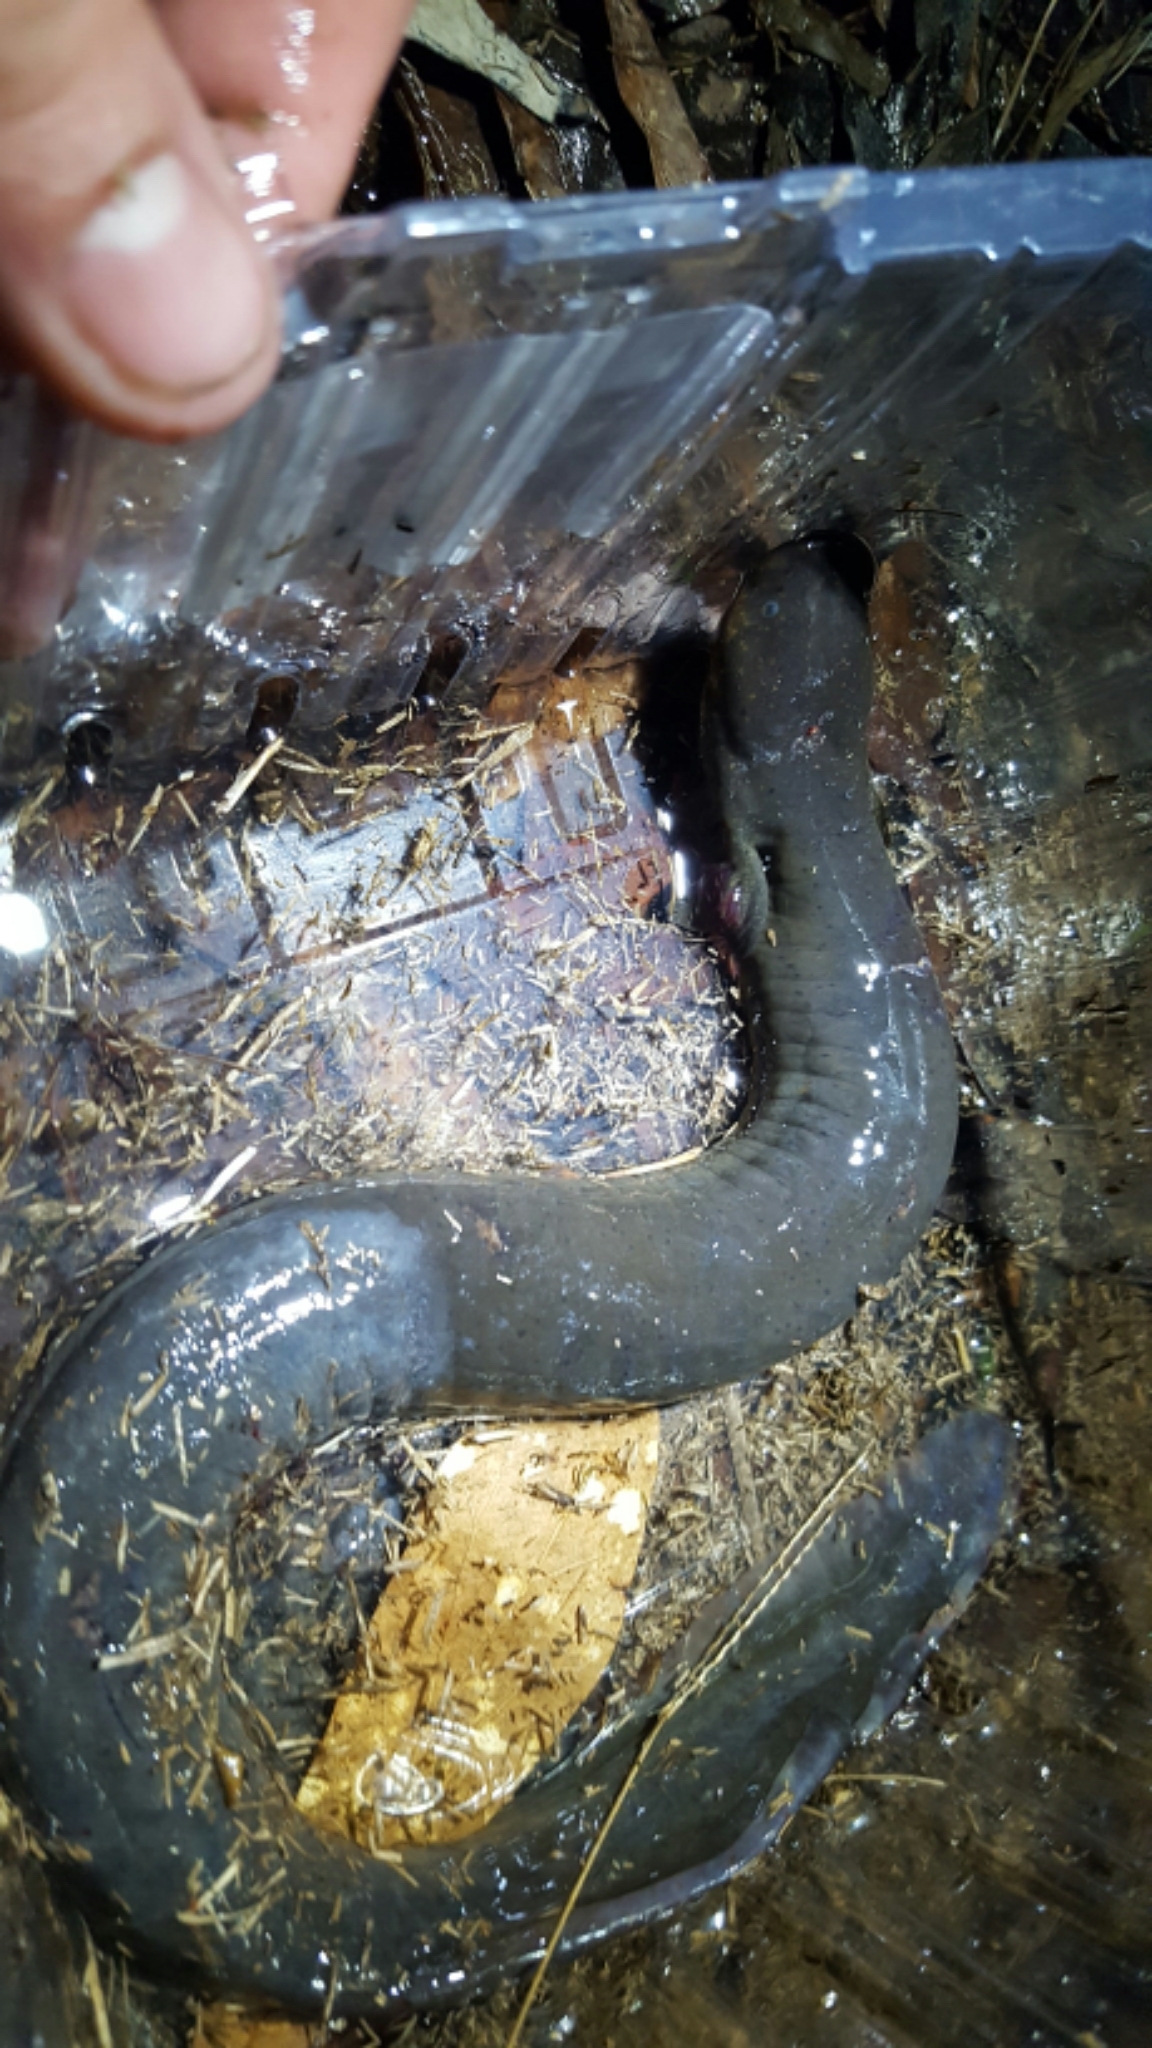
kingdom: Animalia
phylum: Chordata
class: Amphibia
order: Caudata
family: Sirenidae
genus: Siren
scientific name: Siren intermedia
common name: Lesser siren
